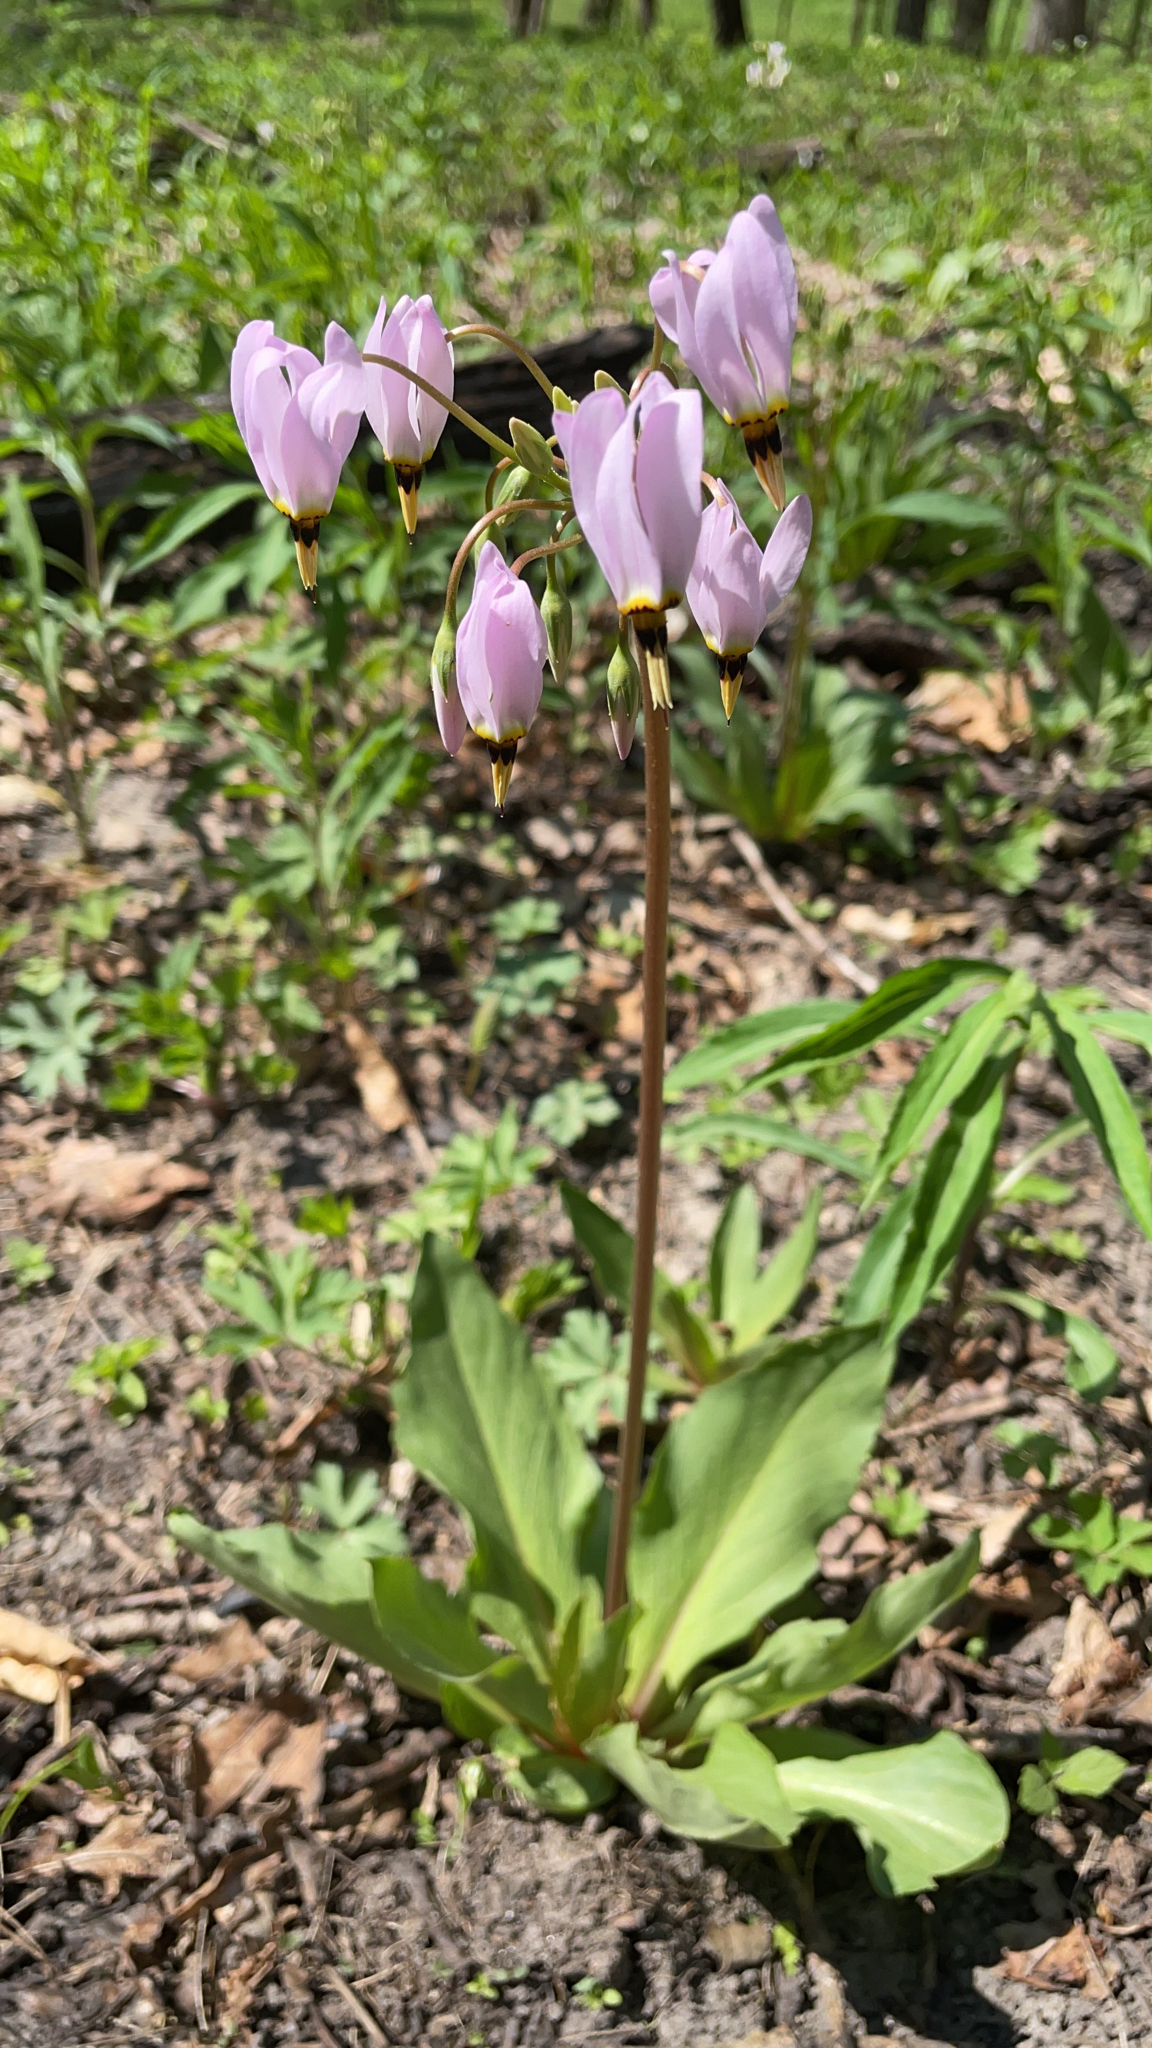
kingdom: Plantae
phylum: Tracheophyta
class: Magnoliopsida
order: Ericales
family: Primulaceae
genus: Dodecatheon
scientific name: Dodecatheon meadia
